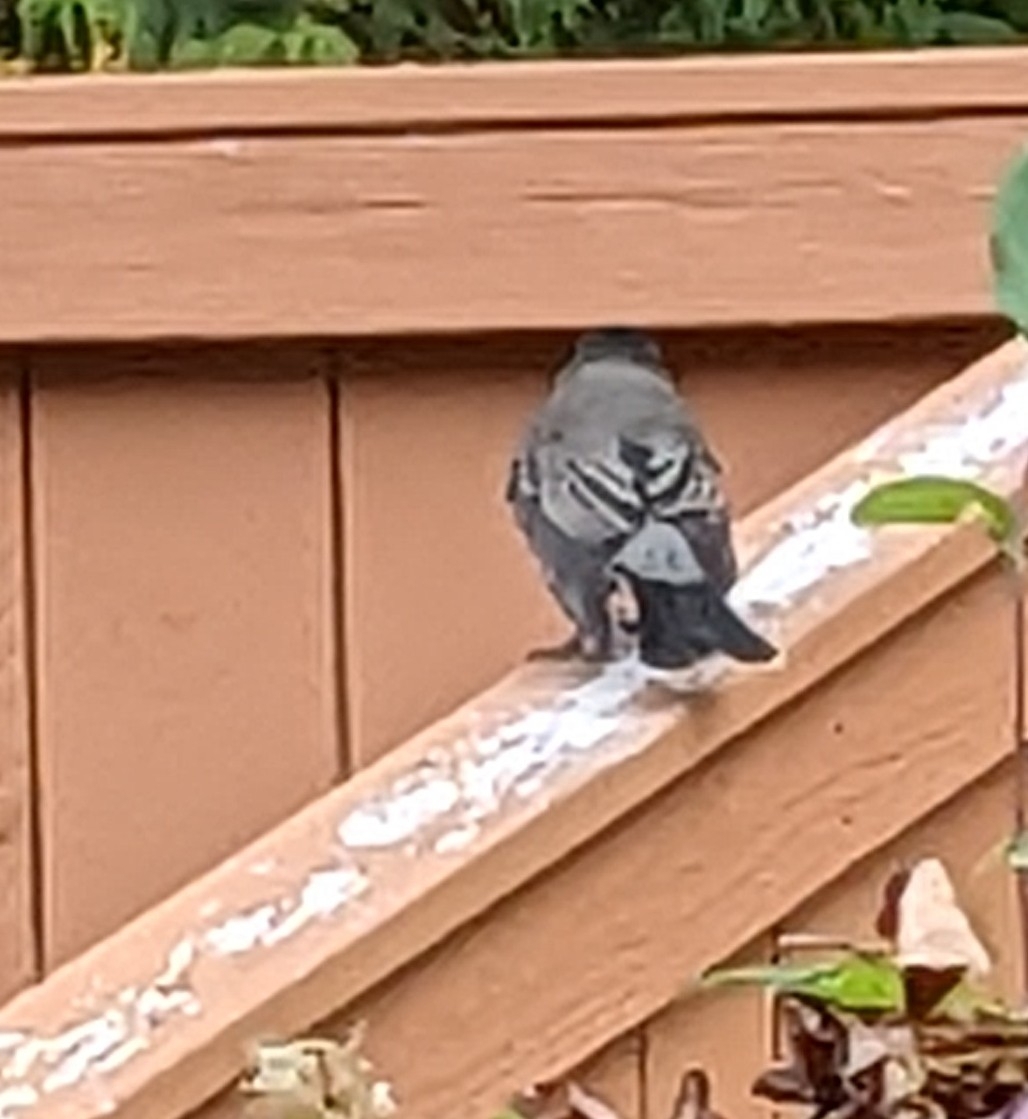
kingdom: Animalia
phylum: Chordata
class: Aves
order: Passeriformes
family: Turdidae
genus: Turdus
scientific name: Turdus migratorius
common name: American robin
